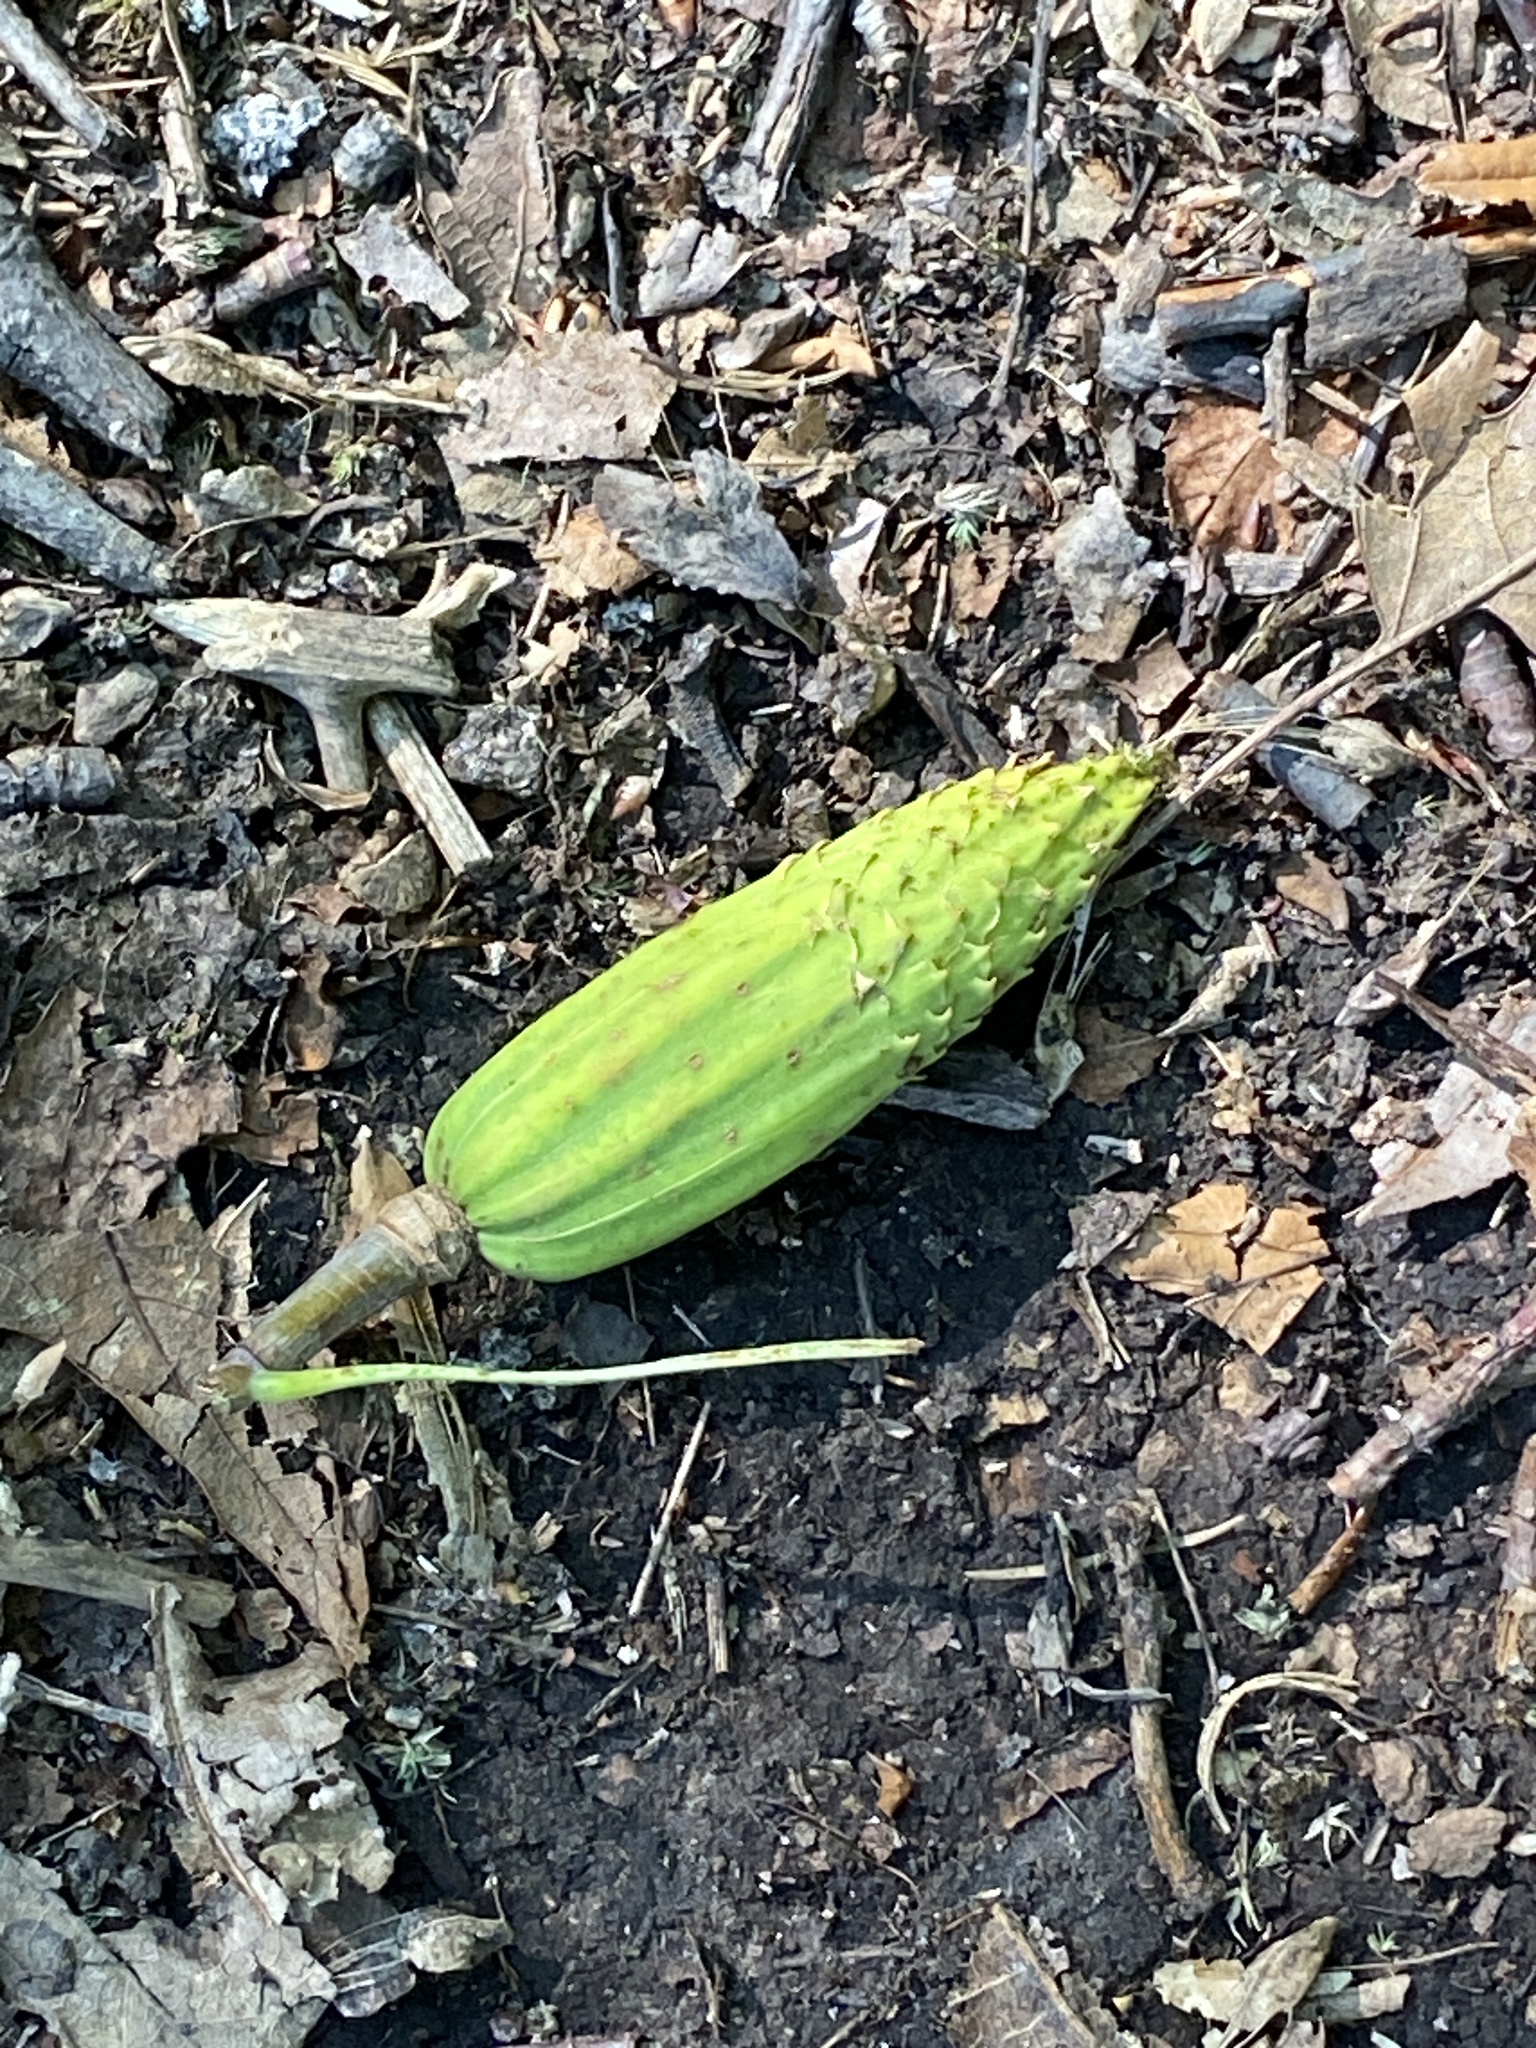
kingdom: Plantae
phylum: Tracheophyta
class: Magnoliopsida
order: Magnoliales
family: Magnoliaceae
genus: Liriodendron
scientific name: Liriodendron tulipifera
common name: Tulip tree
